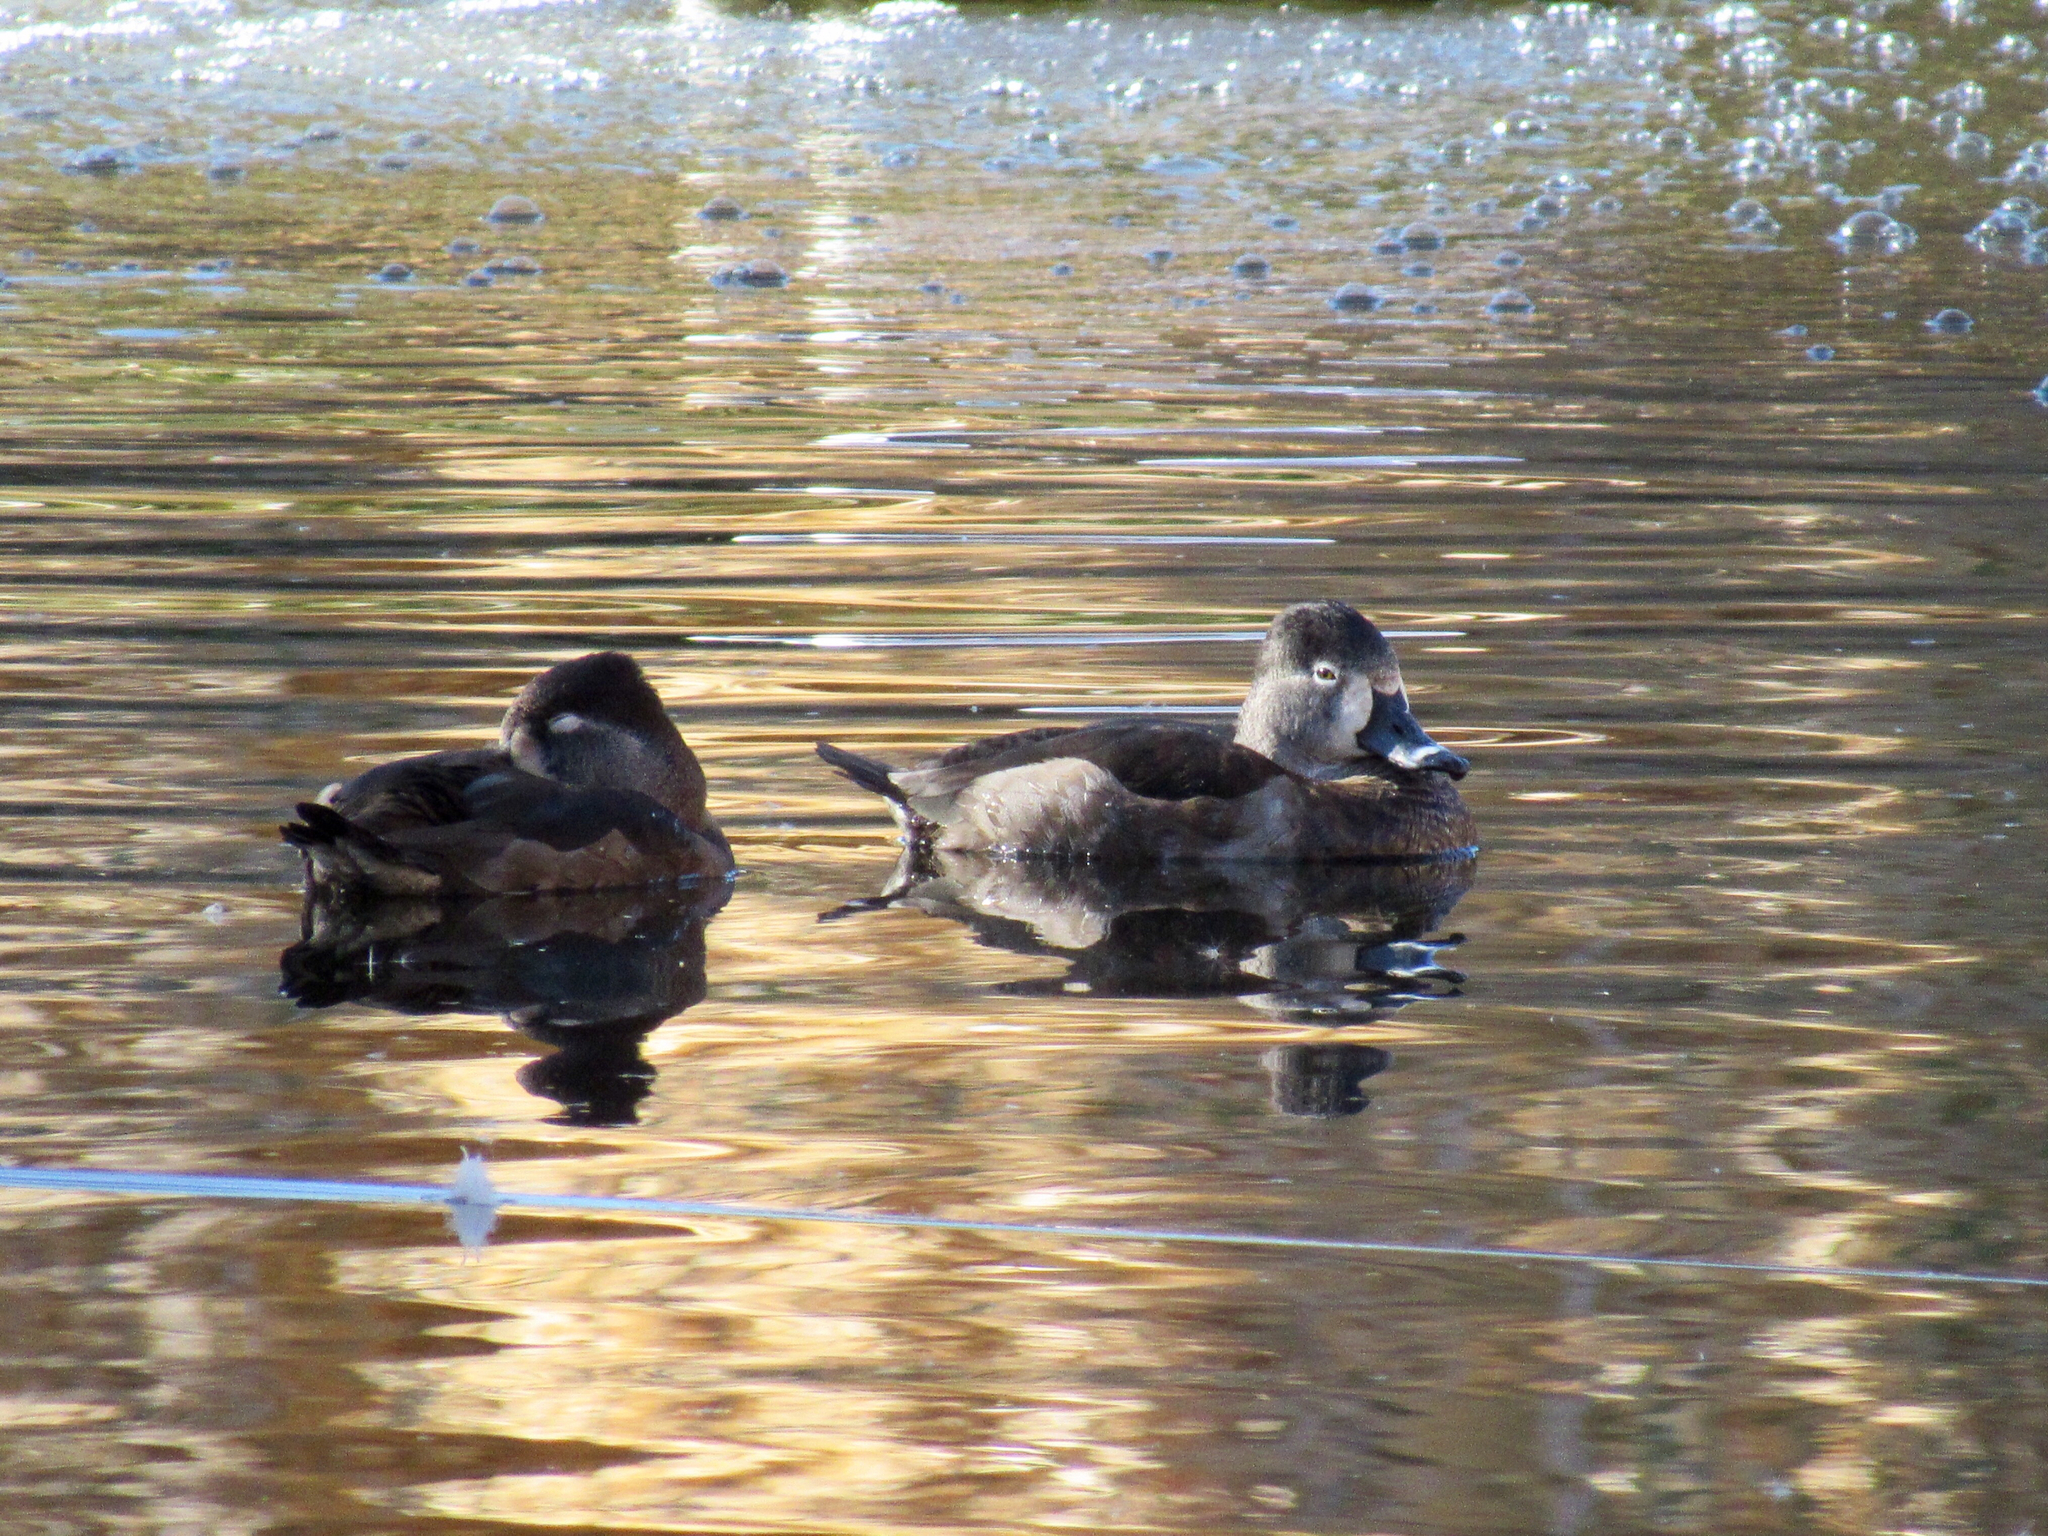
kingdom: Animalia
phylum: Chordata
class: Aves
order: Anseriformes
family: Anatidae
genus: Aythya
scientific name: Aythya collaris
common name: Ring-necked duck
